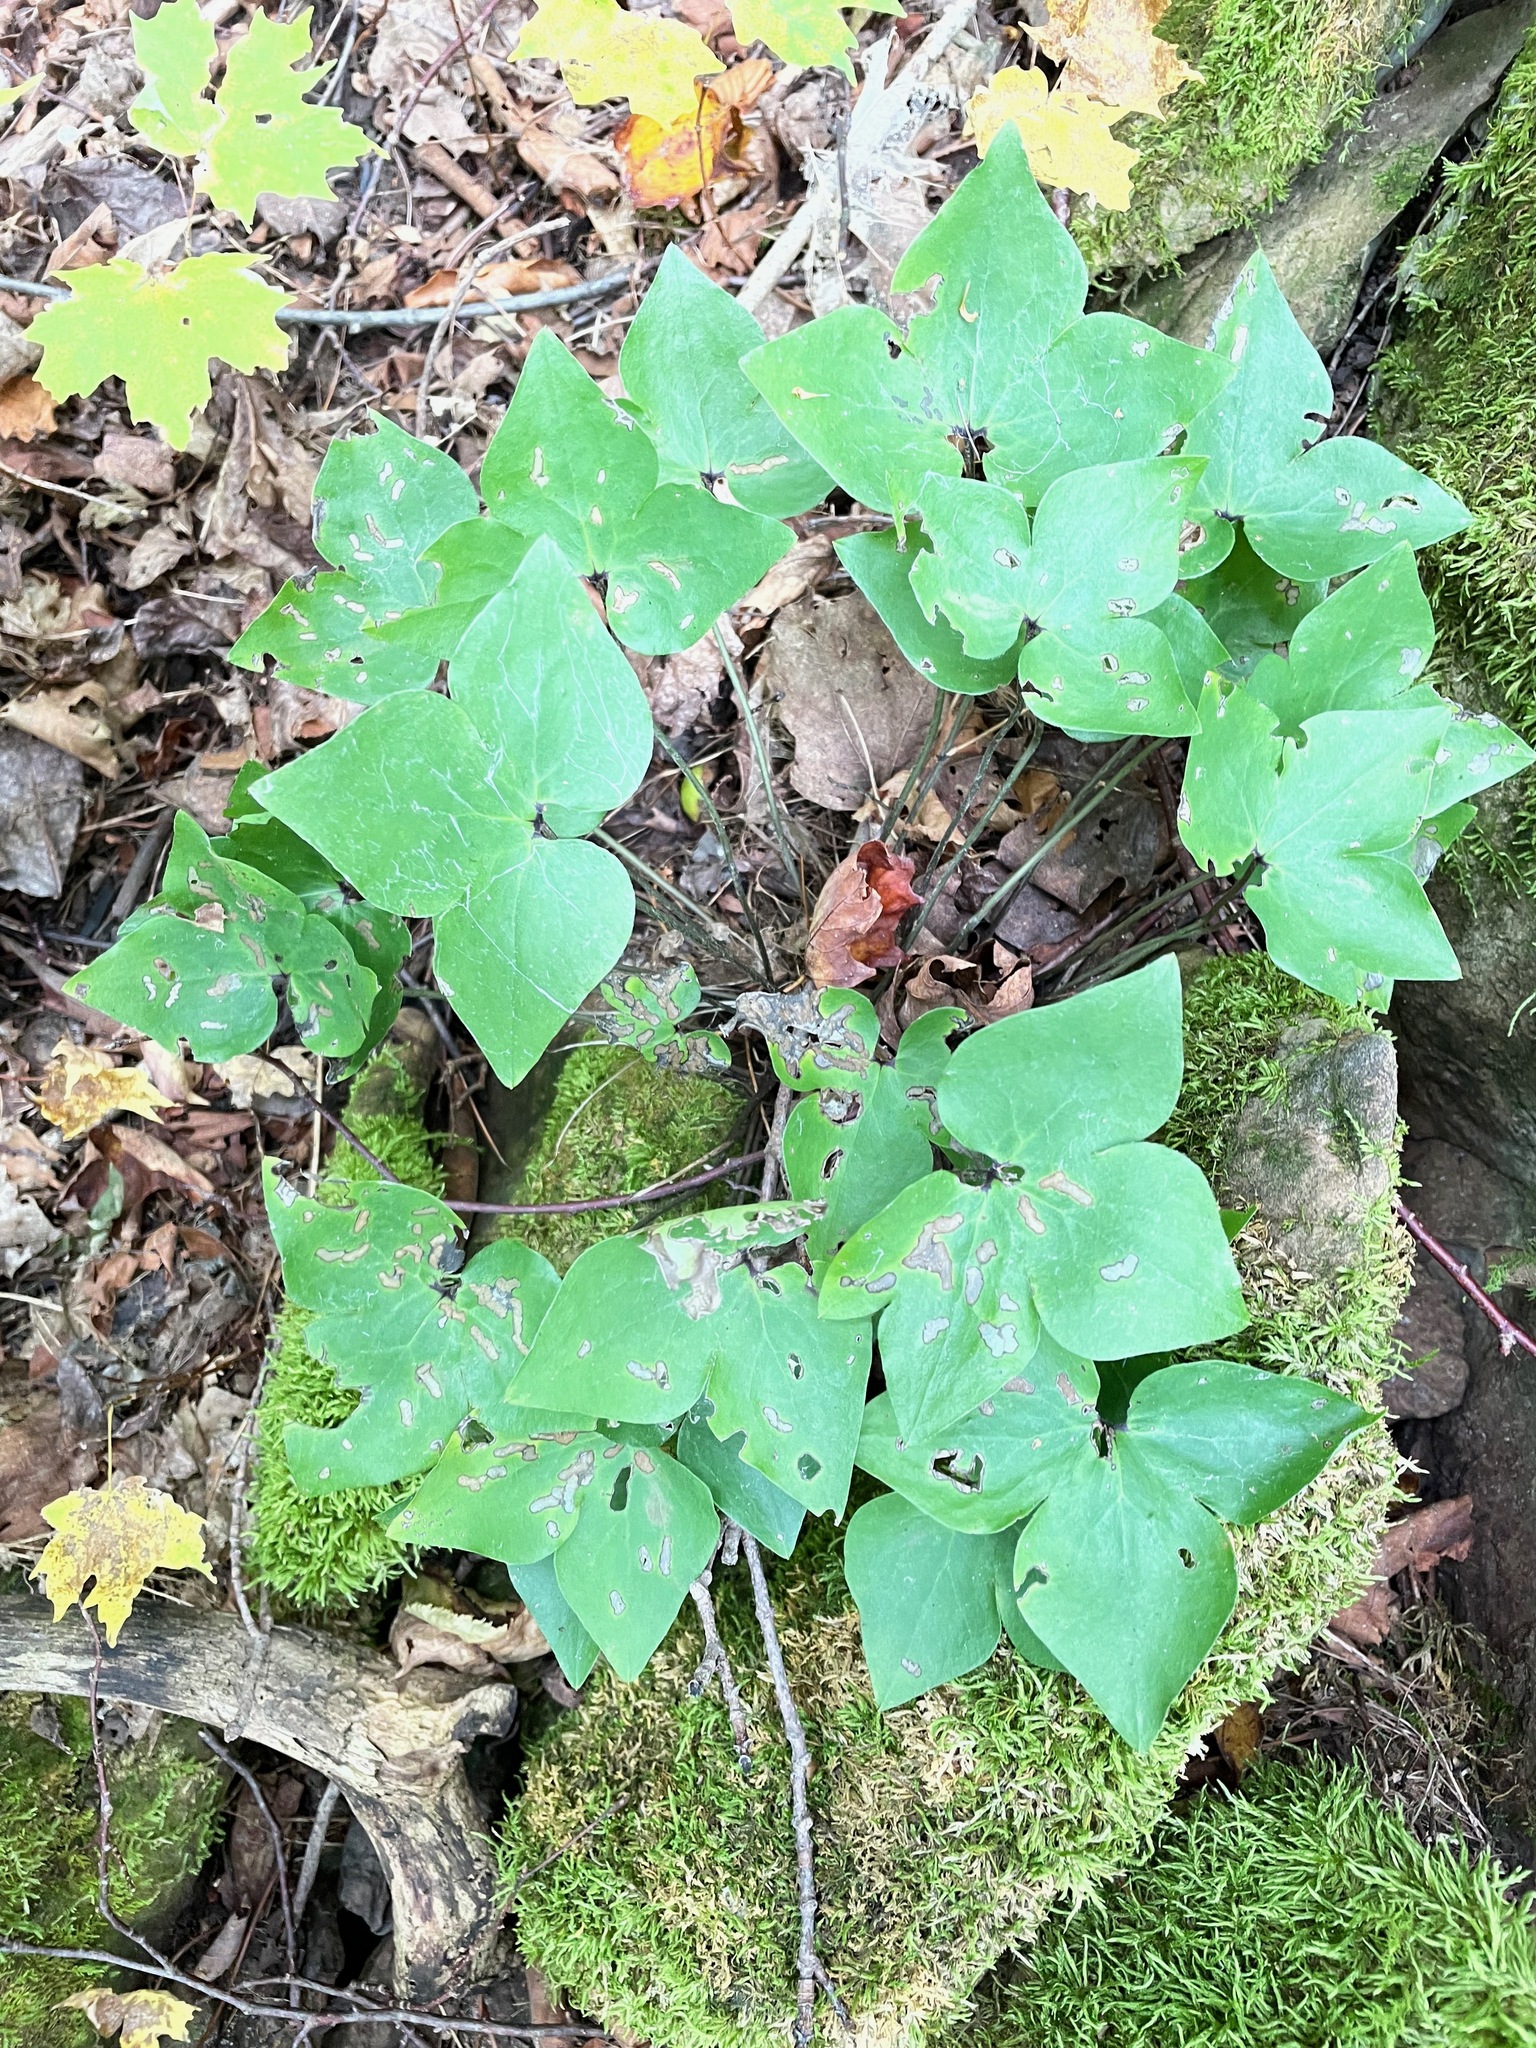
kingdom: Plantae
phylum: Tracheophyta
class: Magnoliopsida
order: Ranunculales
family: Ranunculaceae
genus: Hepatica
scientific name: Hepatica acutiloba
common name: Sharp-lobed hepatica
